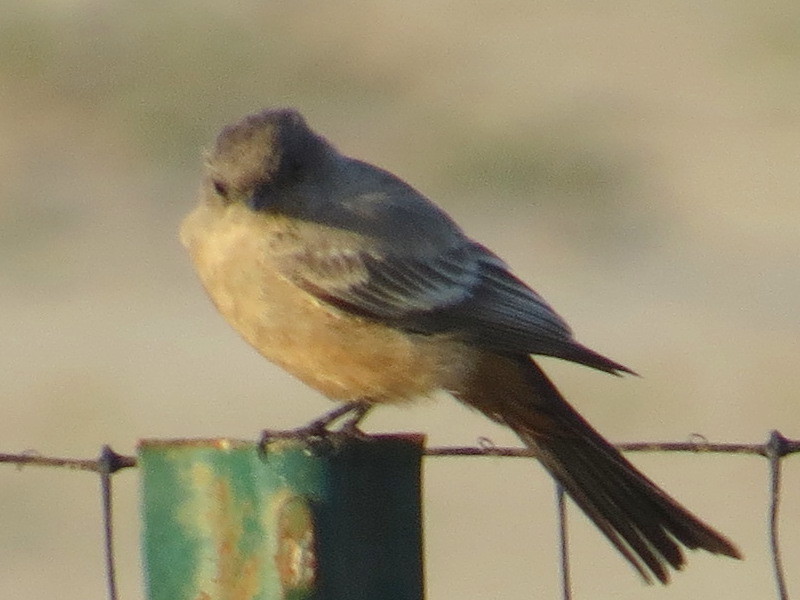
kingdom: Animalia
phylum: Chordata
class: Aves
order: Passeriformes
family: Tyrannidae
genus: Sayornis
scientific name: Sayornis saya
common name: Say's phoebe
